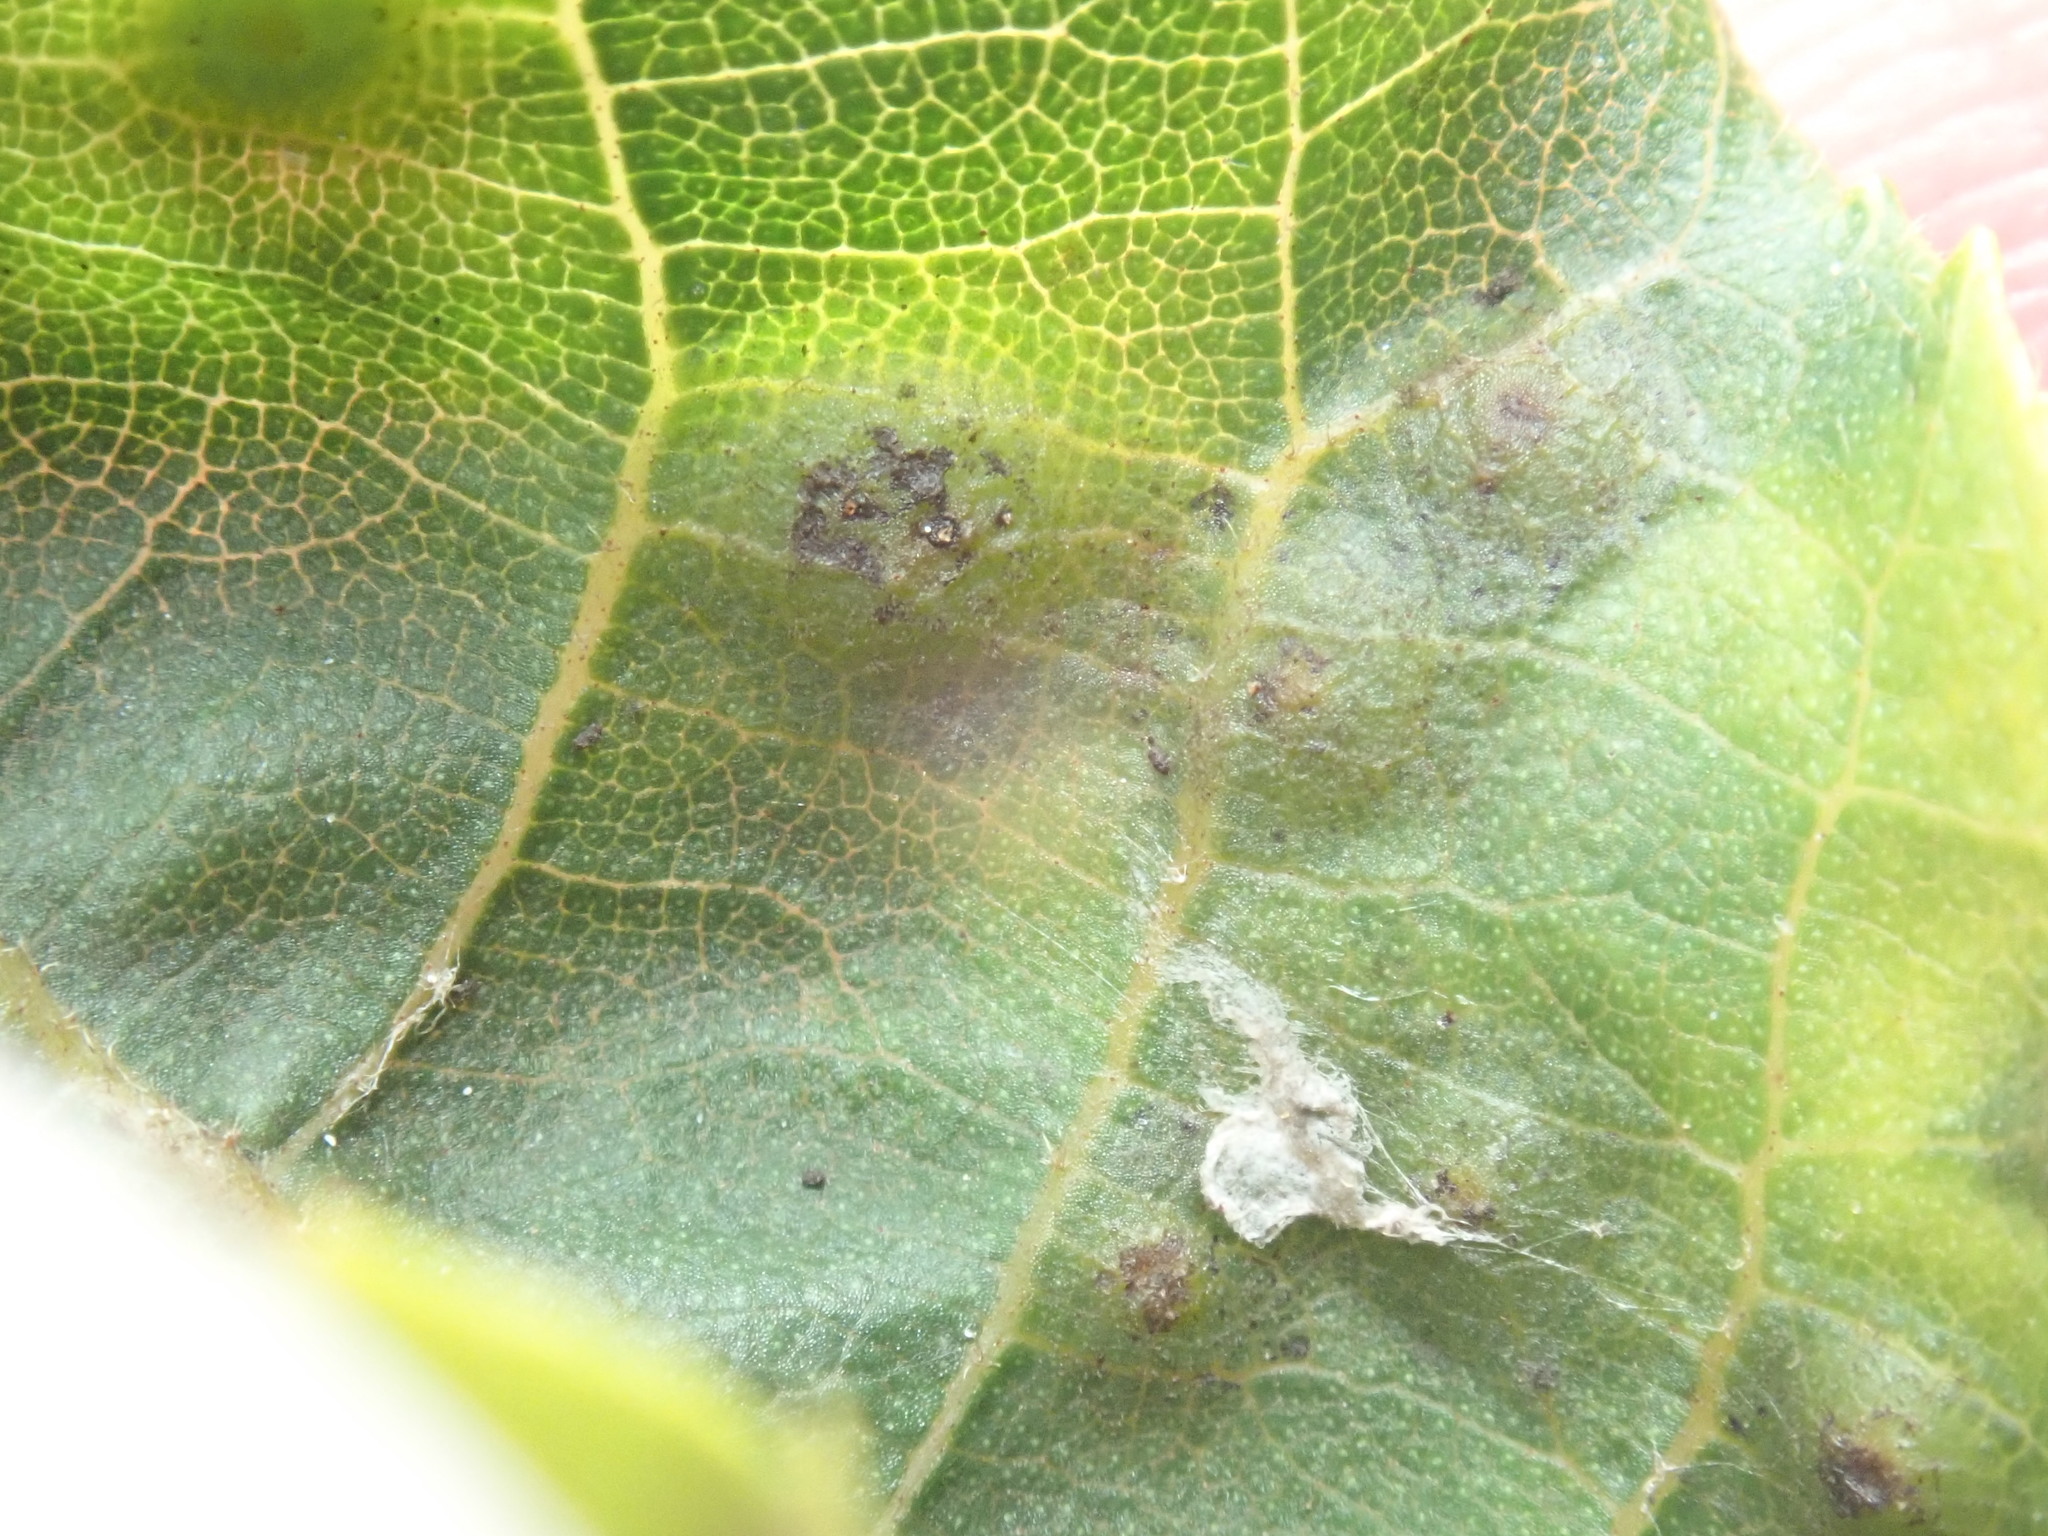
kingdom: Animalia
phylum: Arthropoda
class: Insecta
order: Diptera
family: Cecidomyiidae
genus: Caryomyia
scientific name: Caryomyia tubicola
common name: Hickory bullet gall midge
